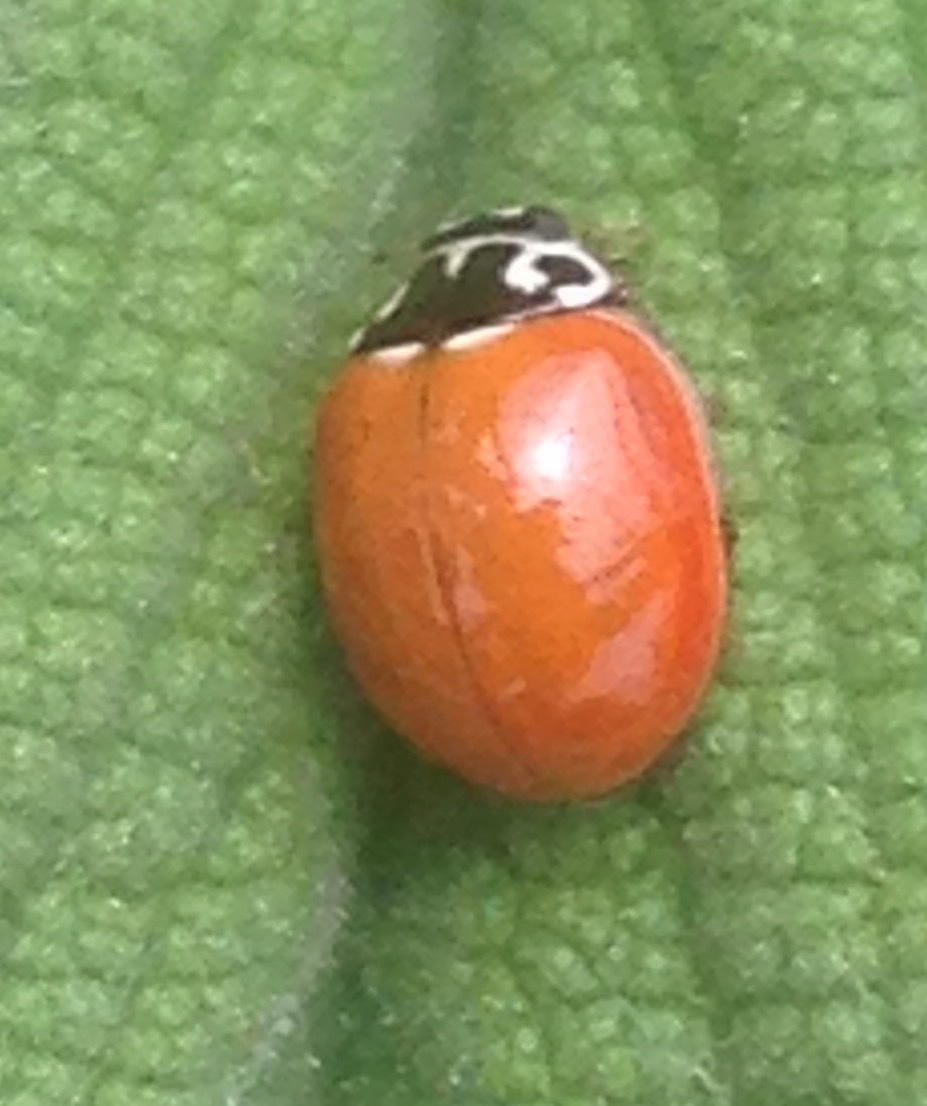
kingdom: Animalia
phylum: Arthropoda
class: Insecta
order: Coleoptera
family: Coccinellidae
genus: Cycloneda
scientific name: Cycloneda polita
